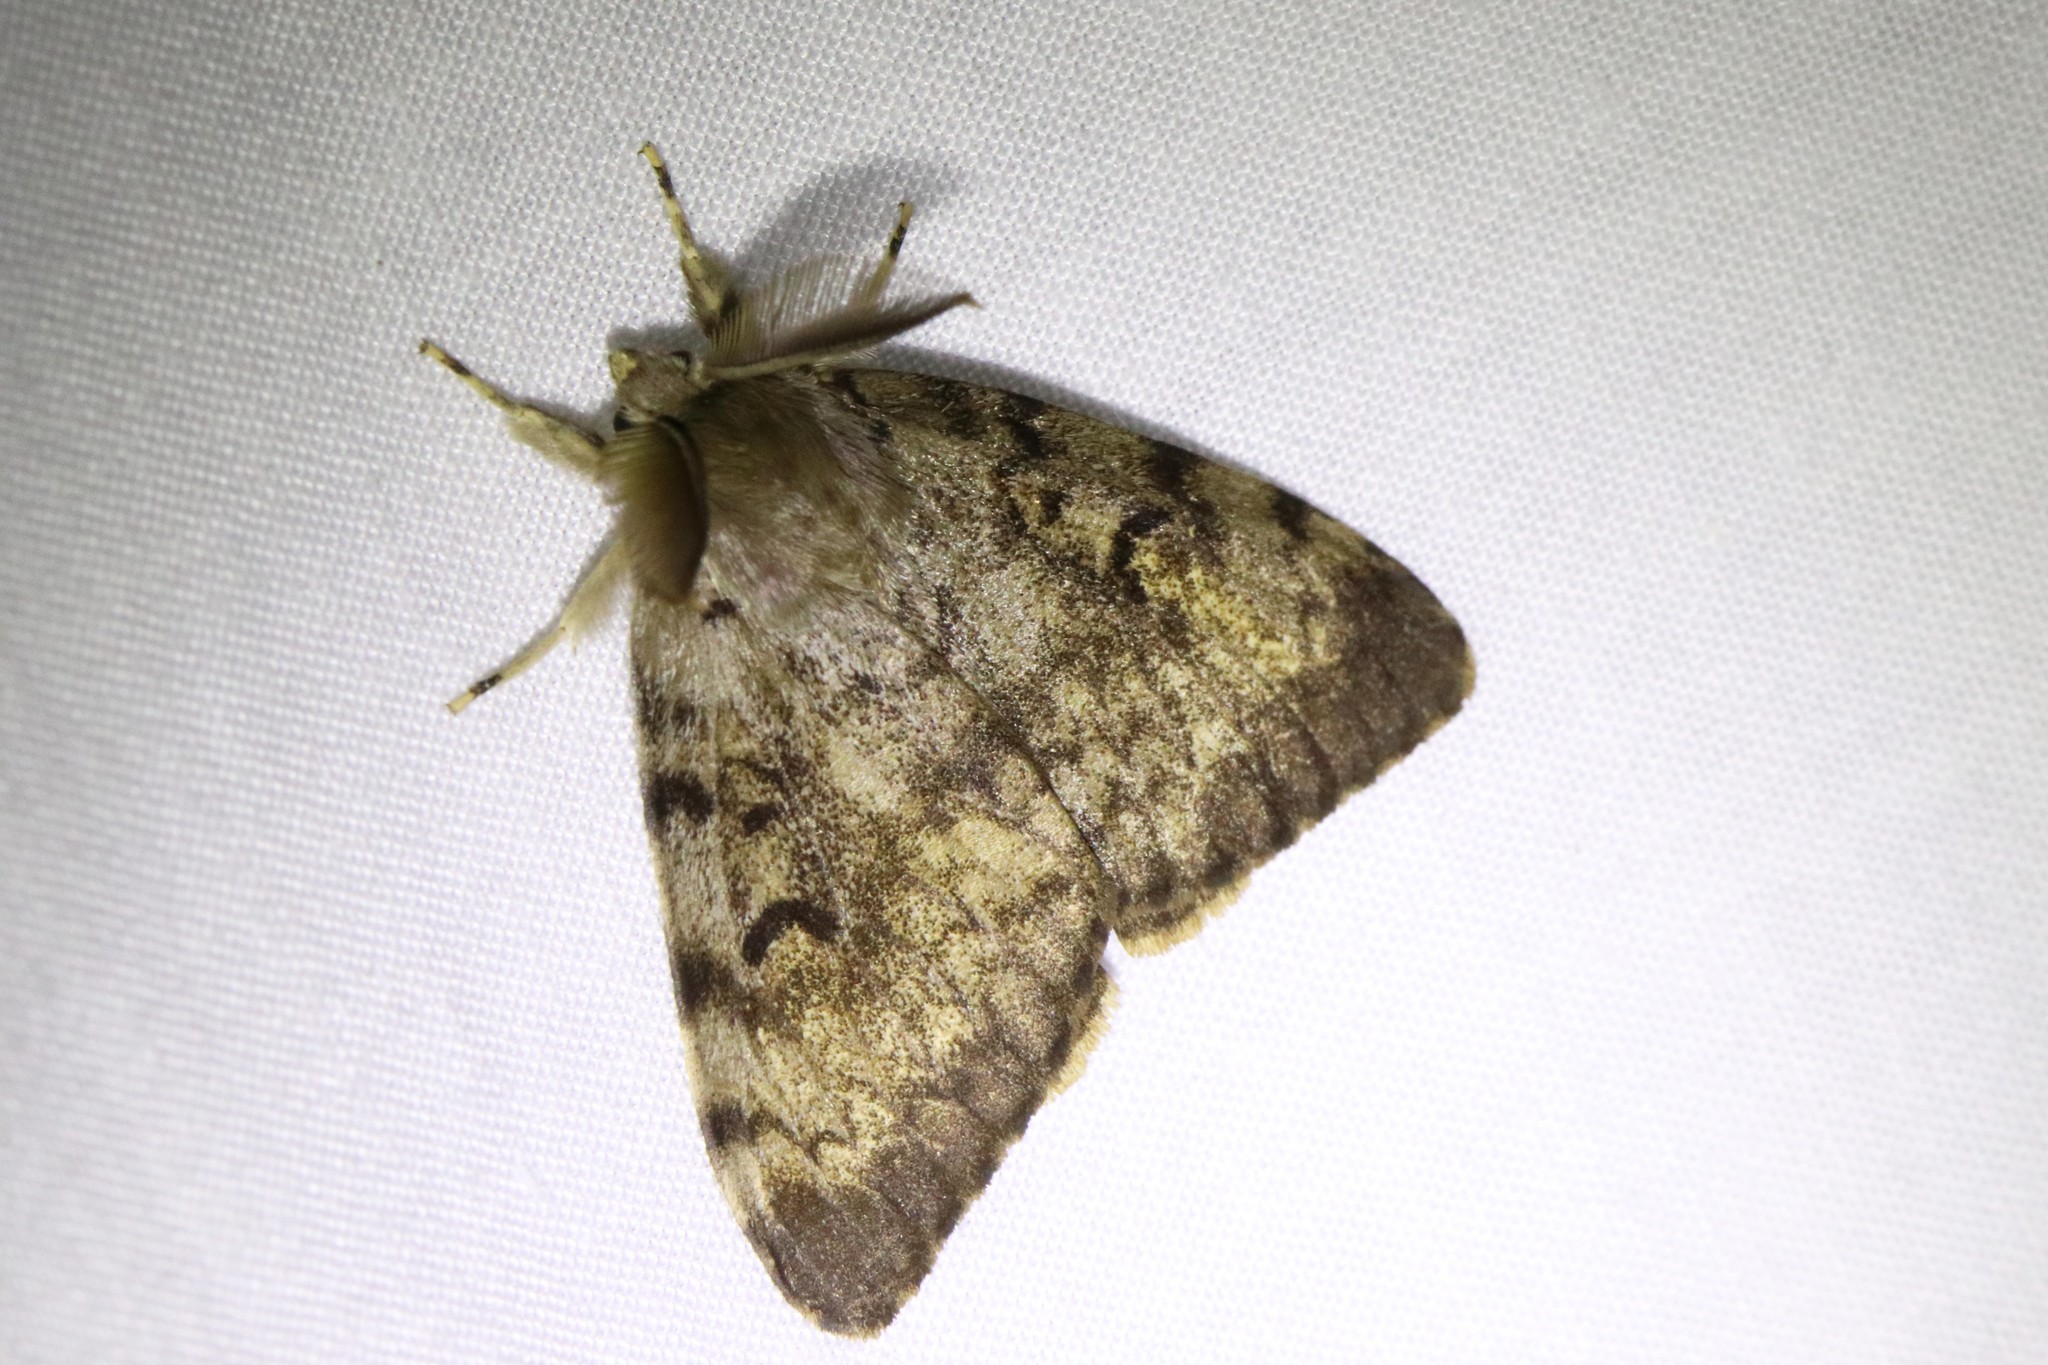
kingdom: Animalia
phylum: Arthropoda
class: Insecta
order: Lepidoptera
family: Erebidae
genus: Lymantria
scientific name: Lymantria dispar
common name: Gypsy moth
